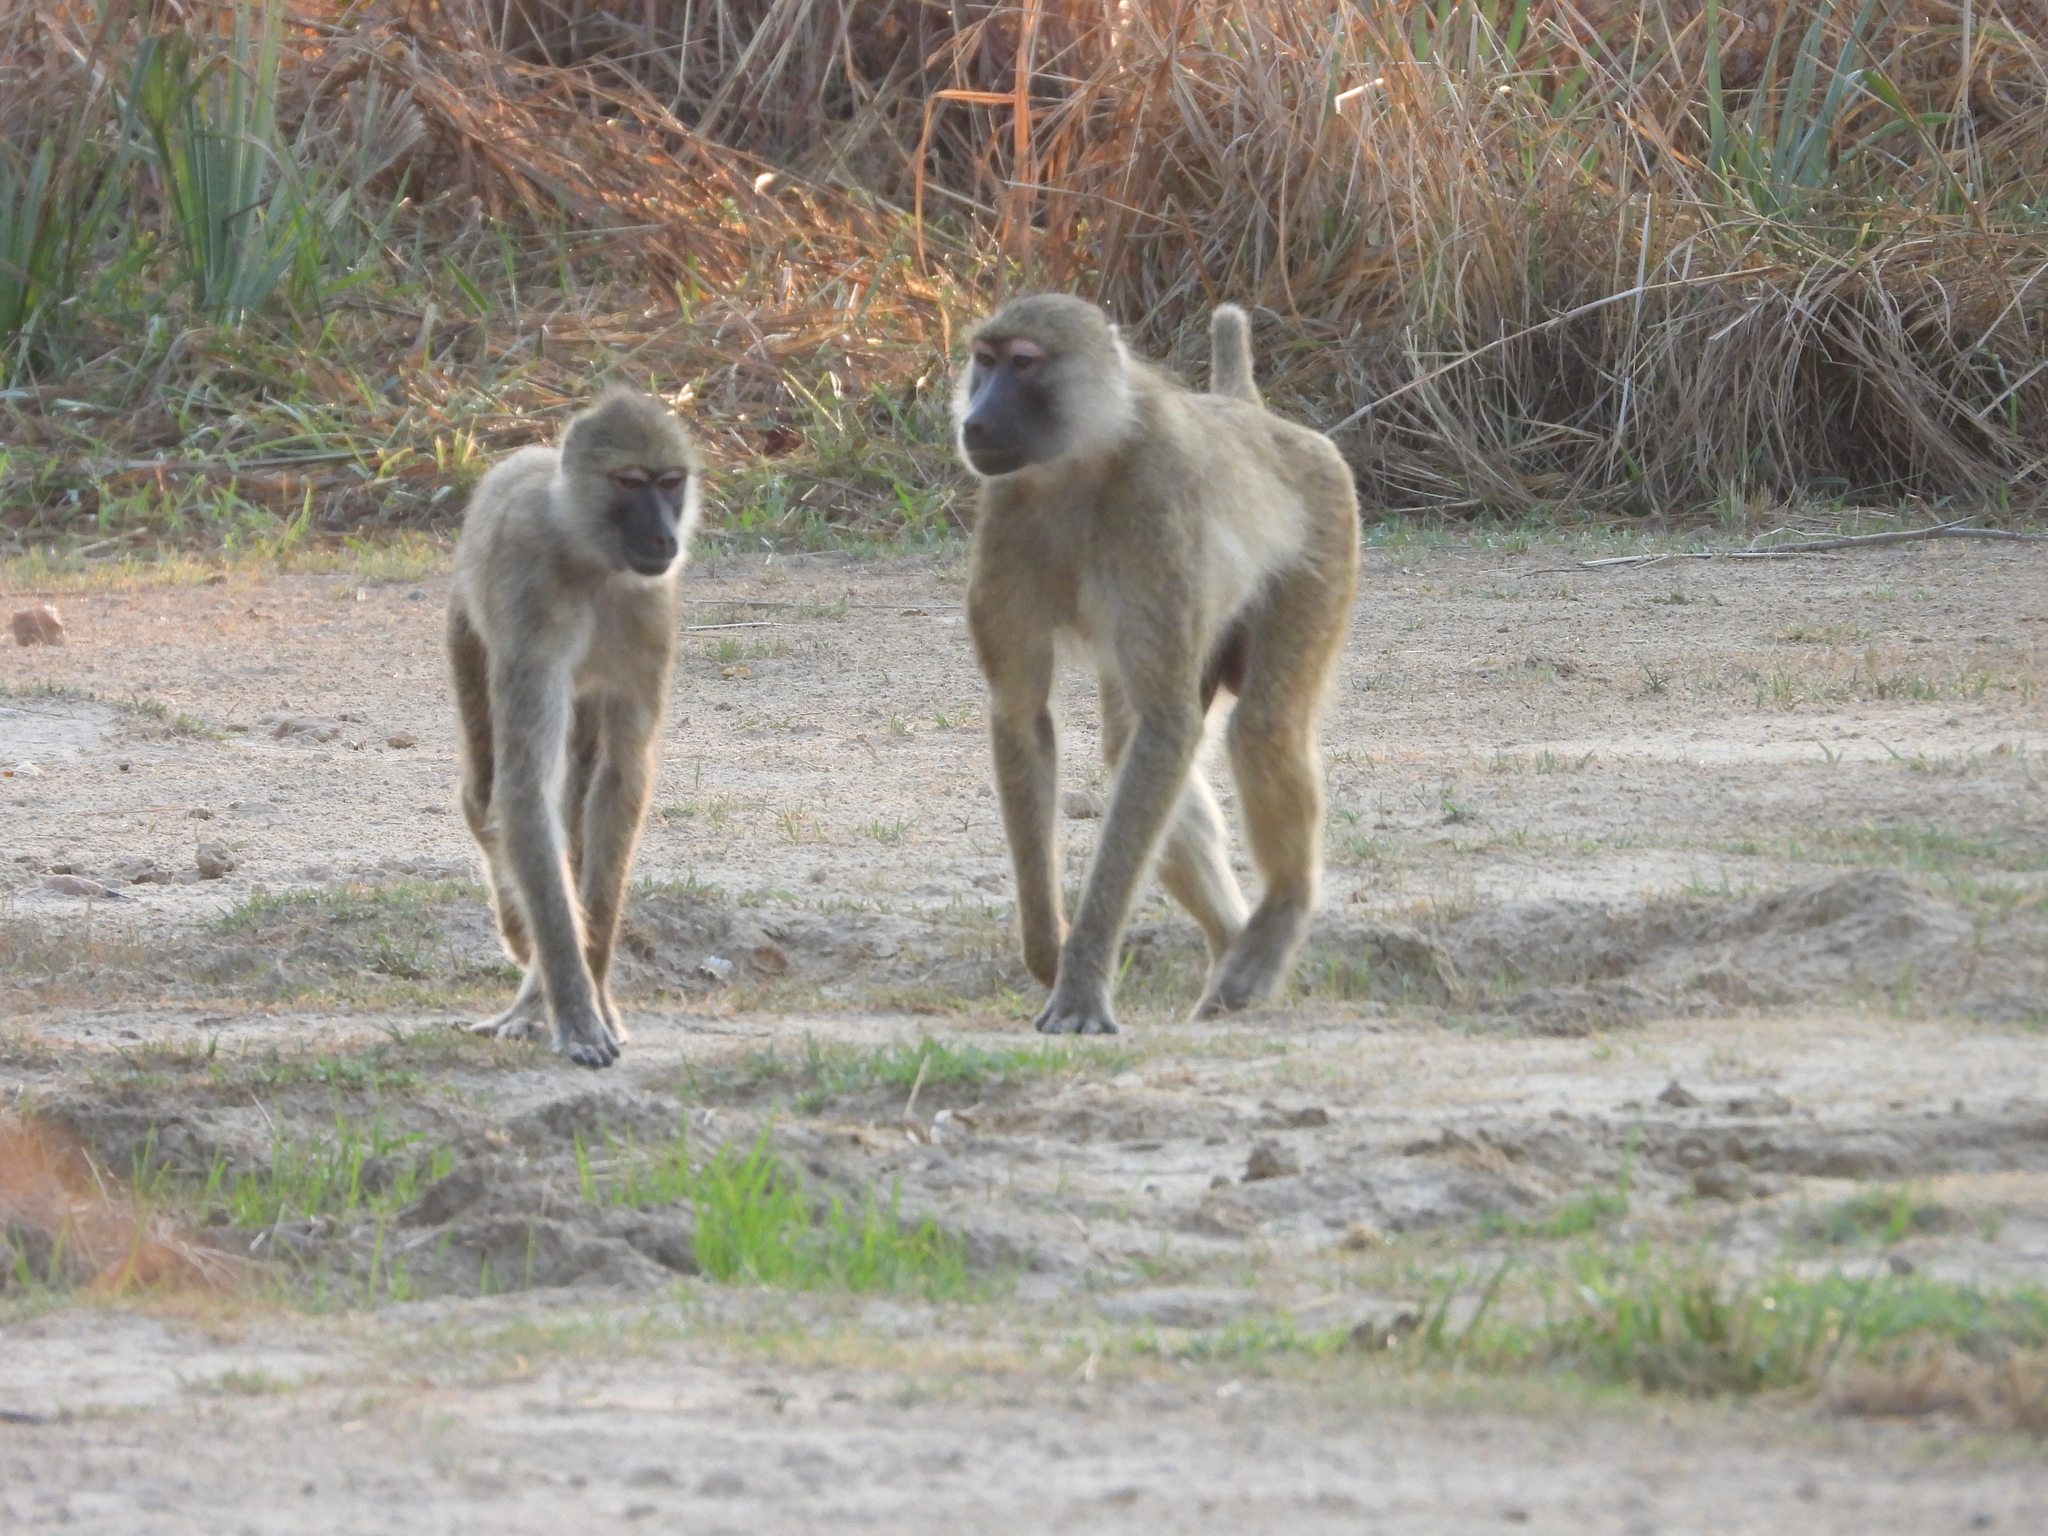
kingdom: Animalia
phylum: Chordata
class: Mammalia
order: Primates
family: Cercopithecidae
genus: Papio
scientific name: Papio kindae
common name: Kinda baboon
